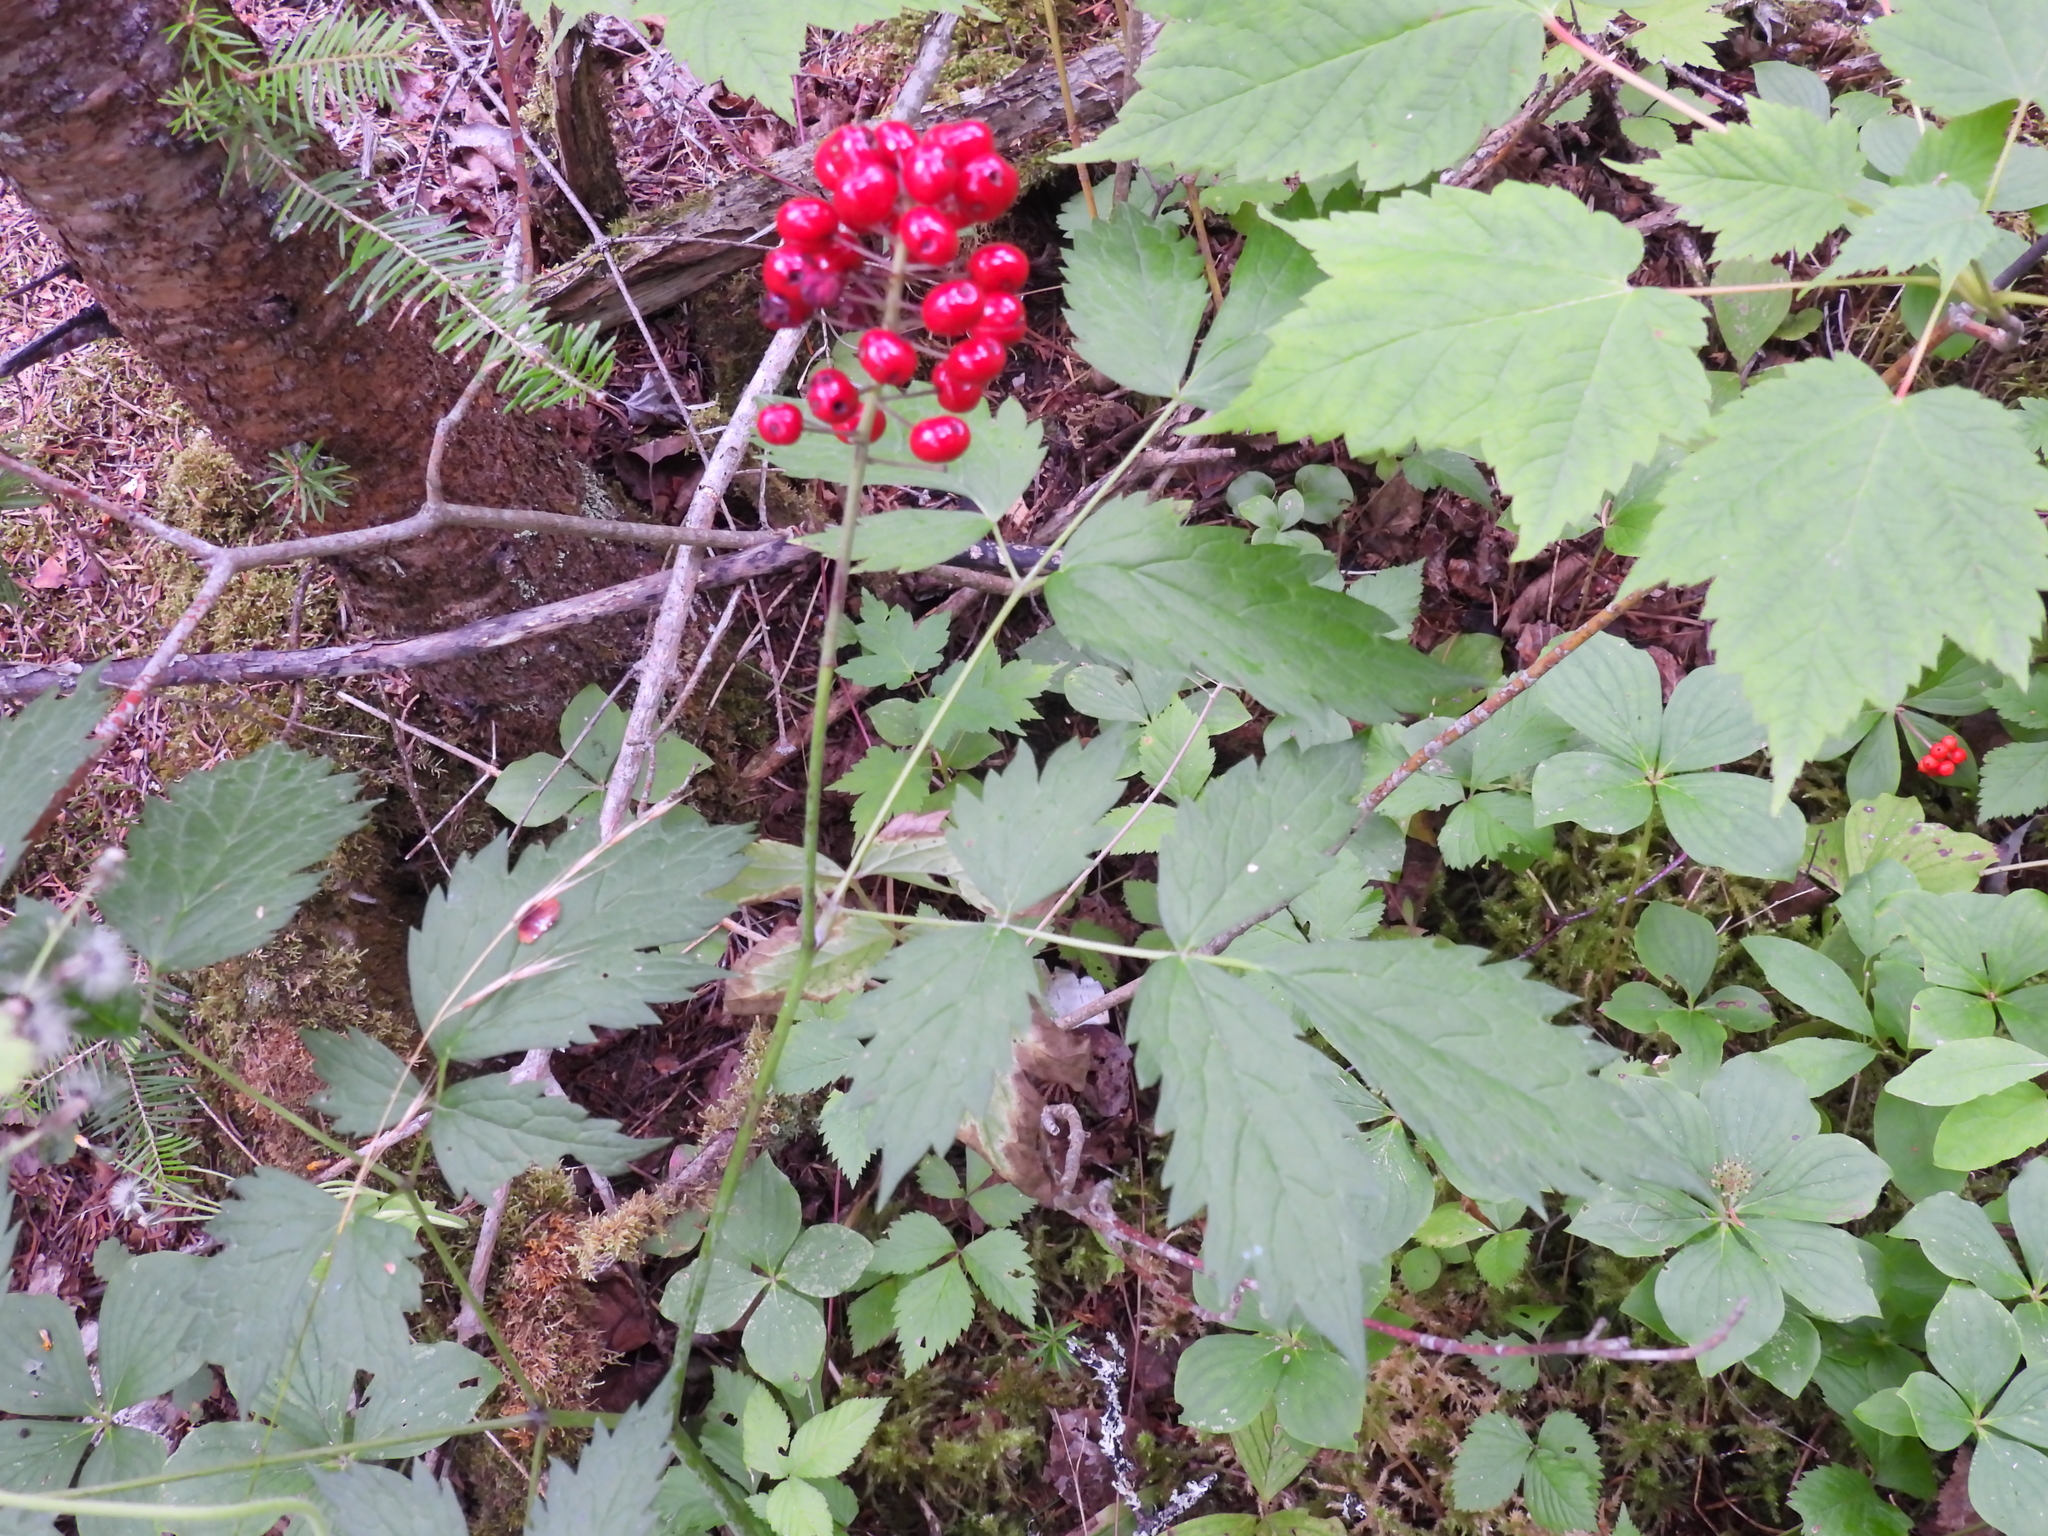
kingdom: Plantae
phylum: Tracheophyta
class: Magnoliopsida
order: Ranunculales
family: Ranunculaceae
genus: Actaea
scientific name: Actaea rubra
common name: Red baneberry
